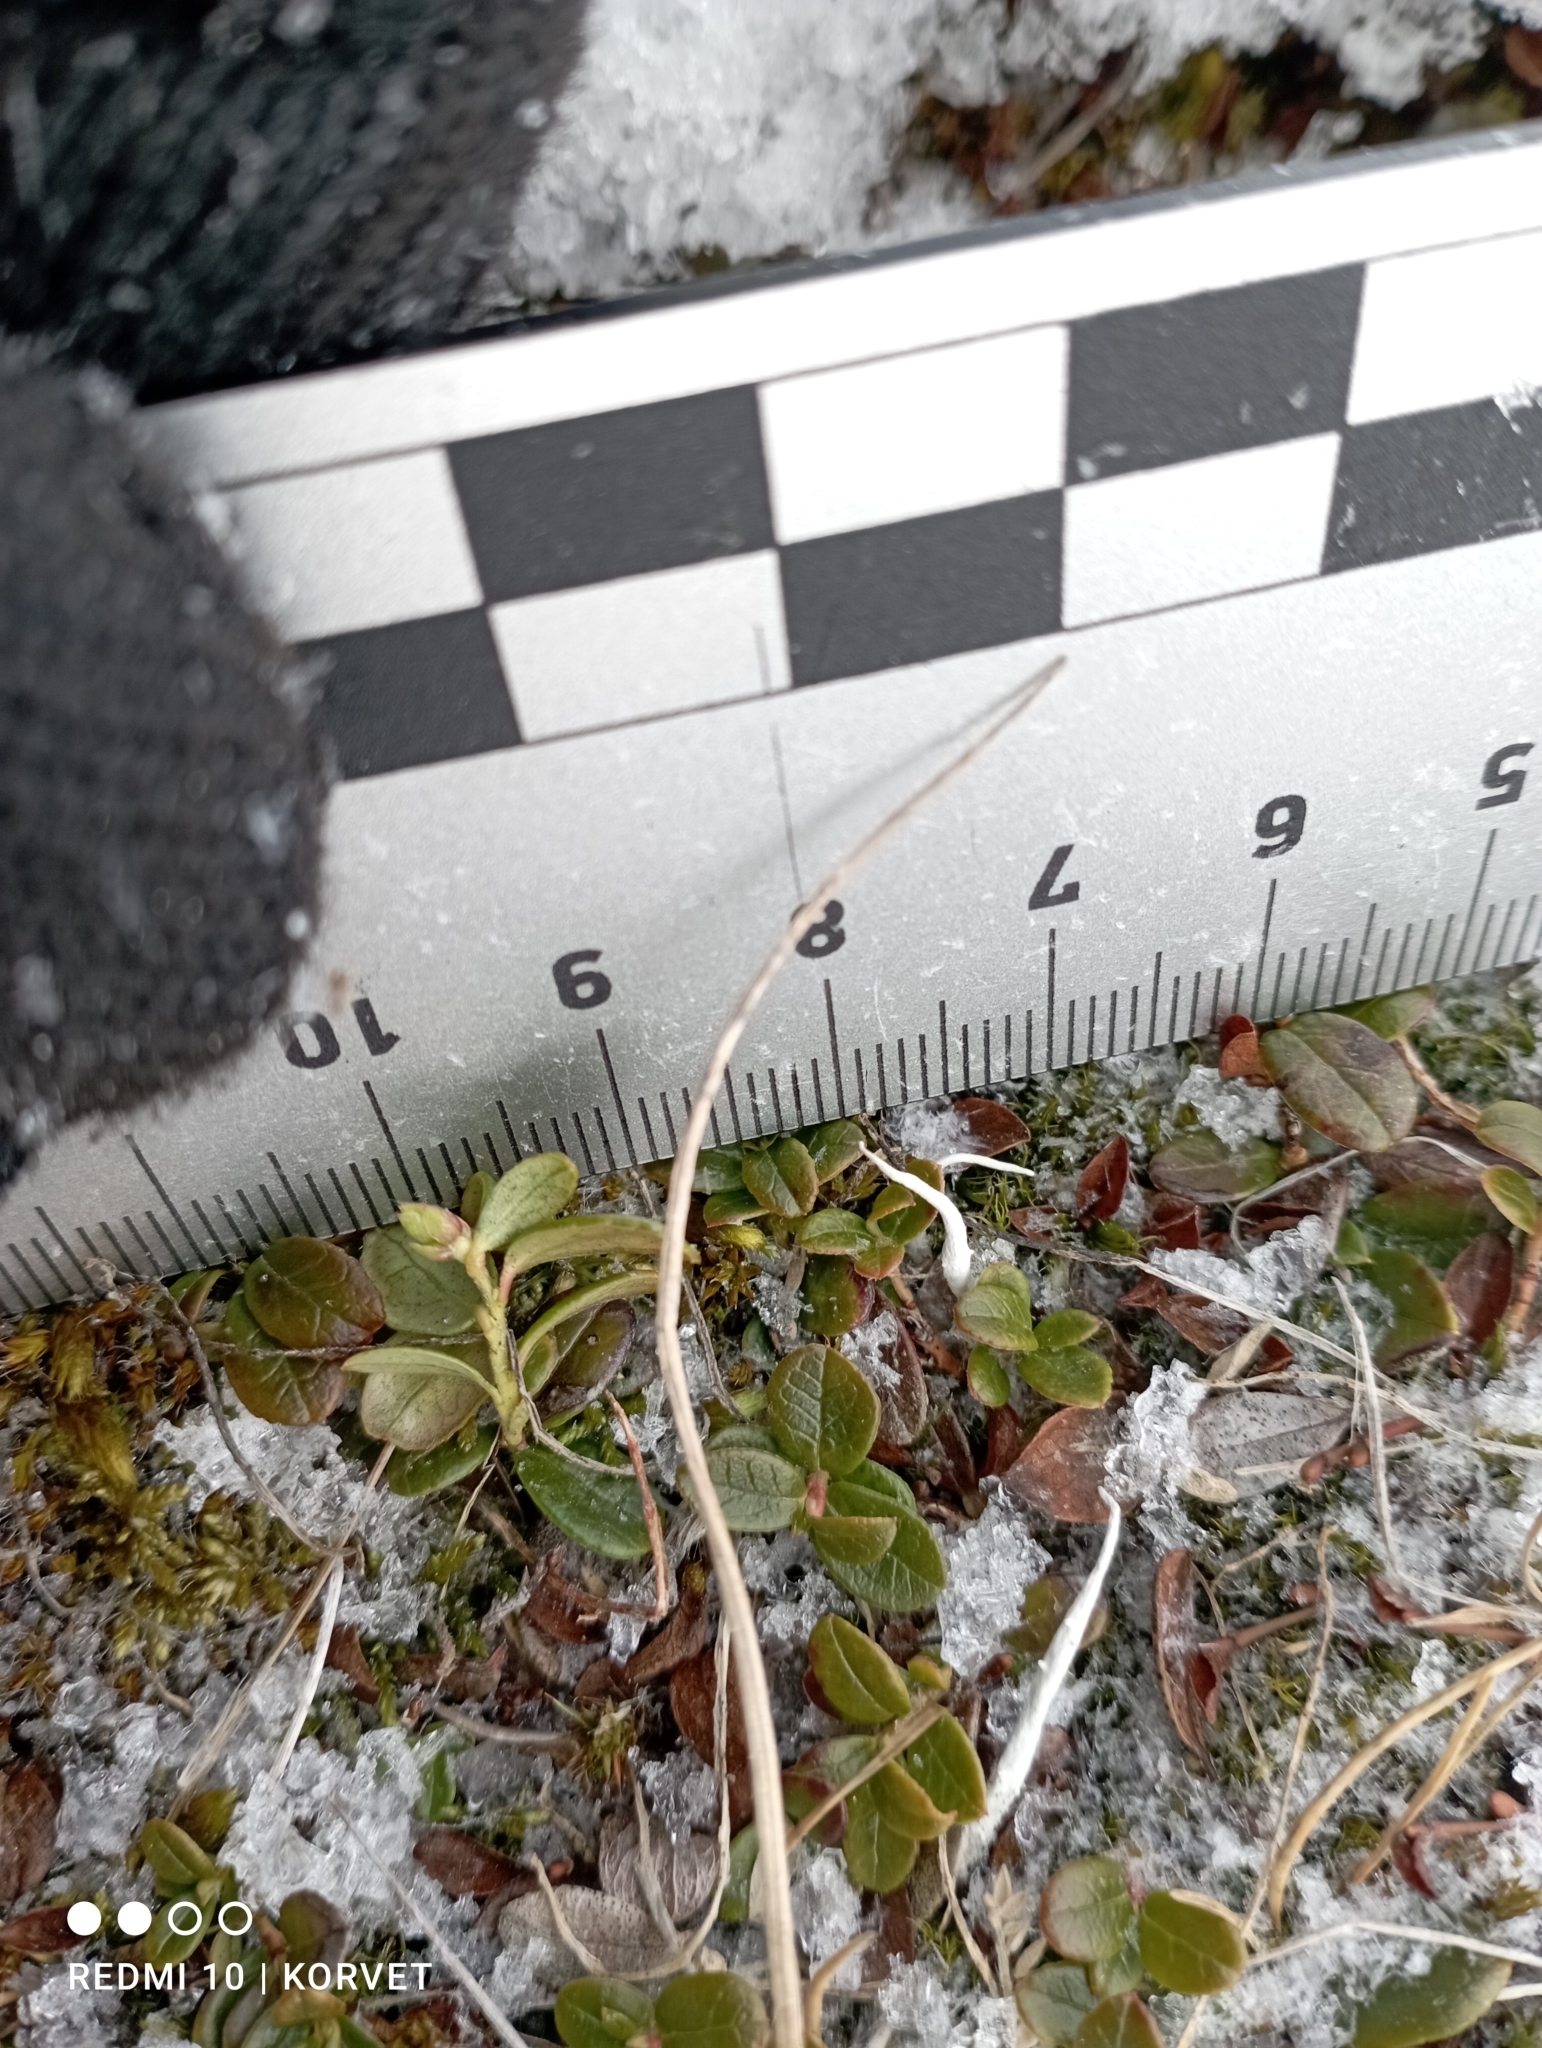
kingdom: Plantae
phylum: Tracheophyta
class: Magnoliopsida
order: Ericales
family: Ericaceae
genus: Vaccinium
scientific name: Vaccinium vitis-idaea
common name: Cowberry
